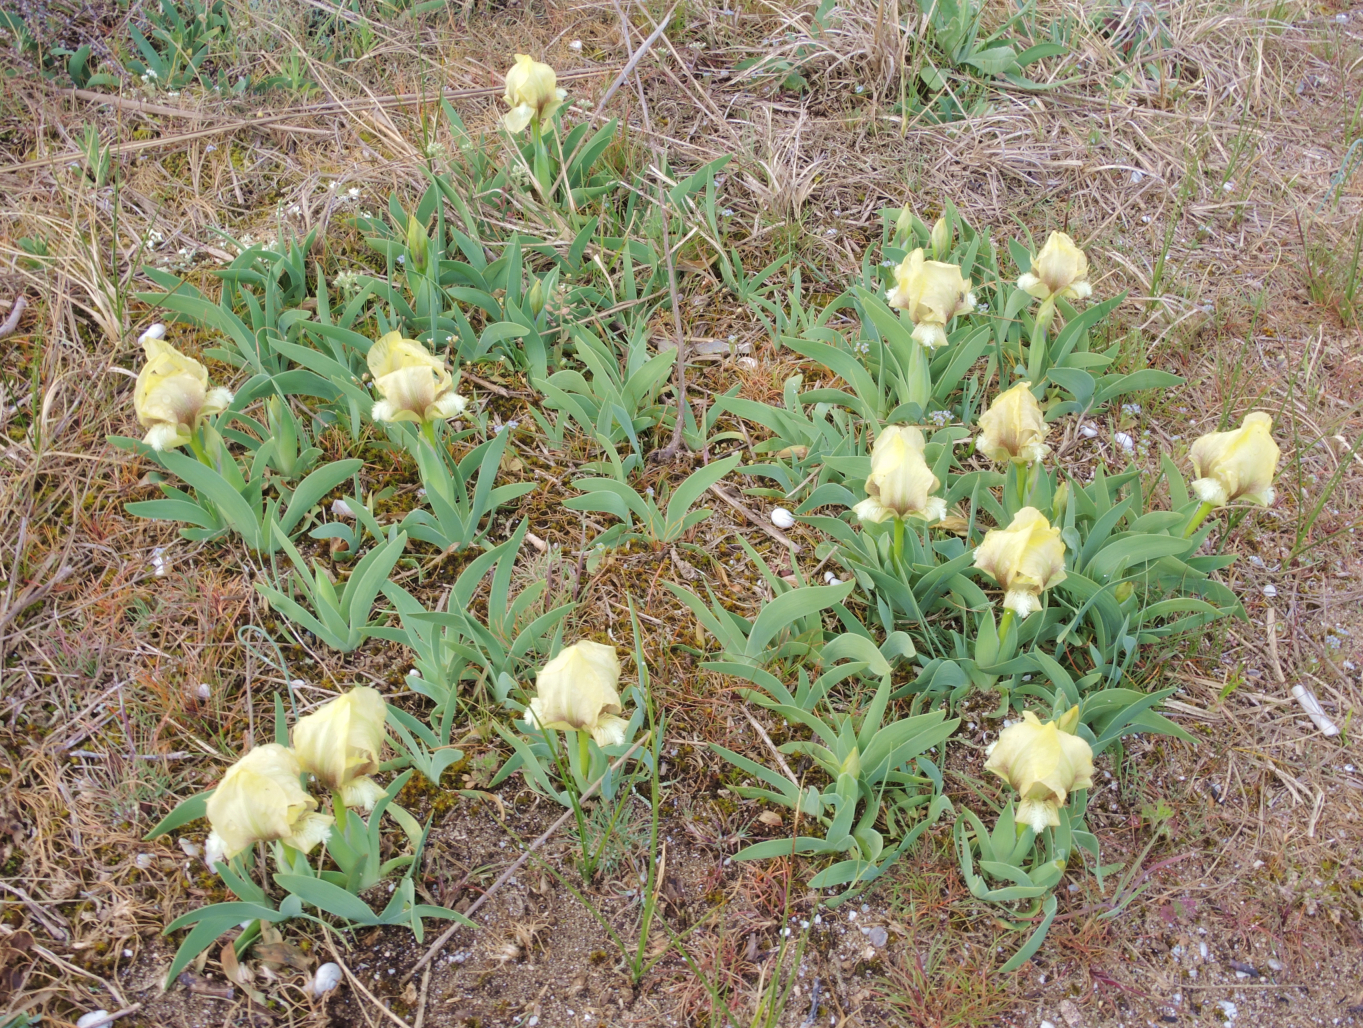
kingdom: Plantae
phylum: Tracheophyta
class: Liliopsida
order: Asparagales
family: Iridaceae
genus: Iris
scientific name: Iris suaveolens
